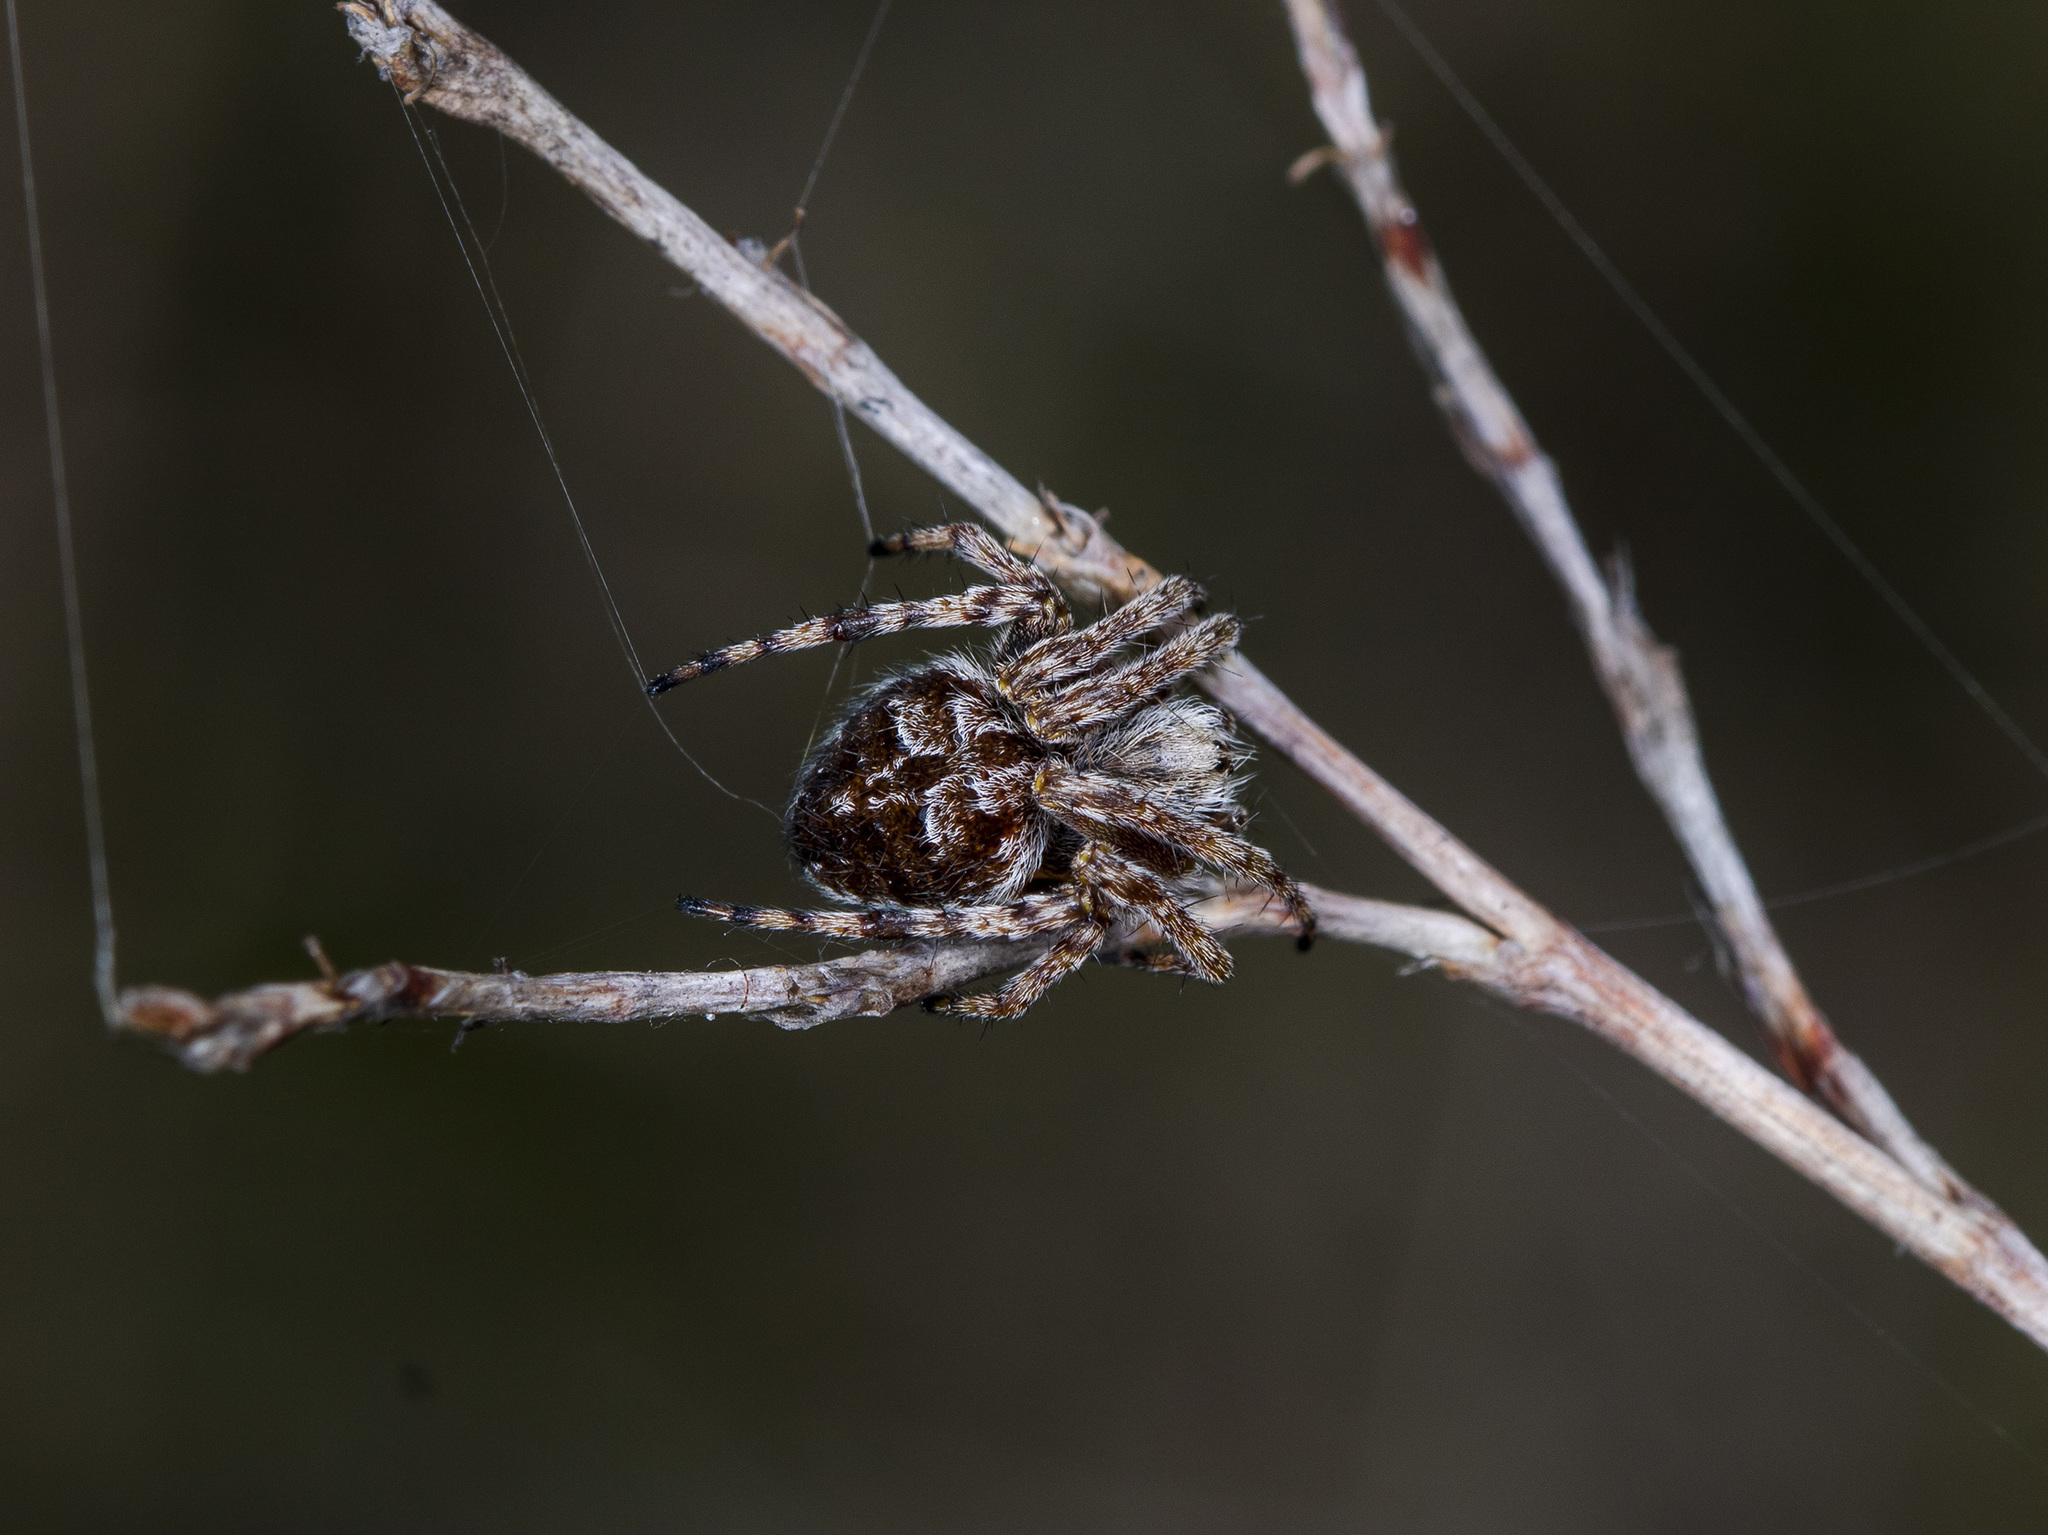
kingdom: Animalia
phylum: Arthropoda
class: Arachnida
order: Araneae
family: Araneidae
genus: Agalenatea
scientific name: Agalenatea redii
